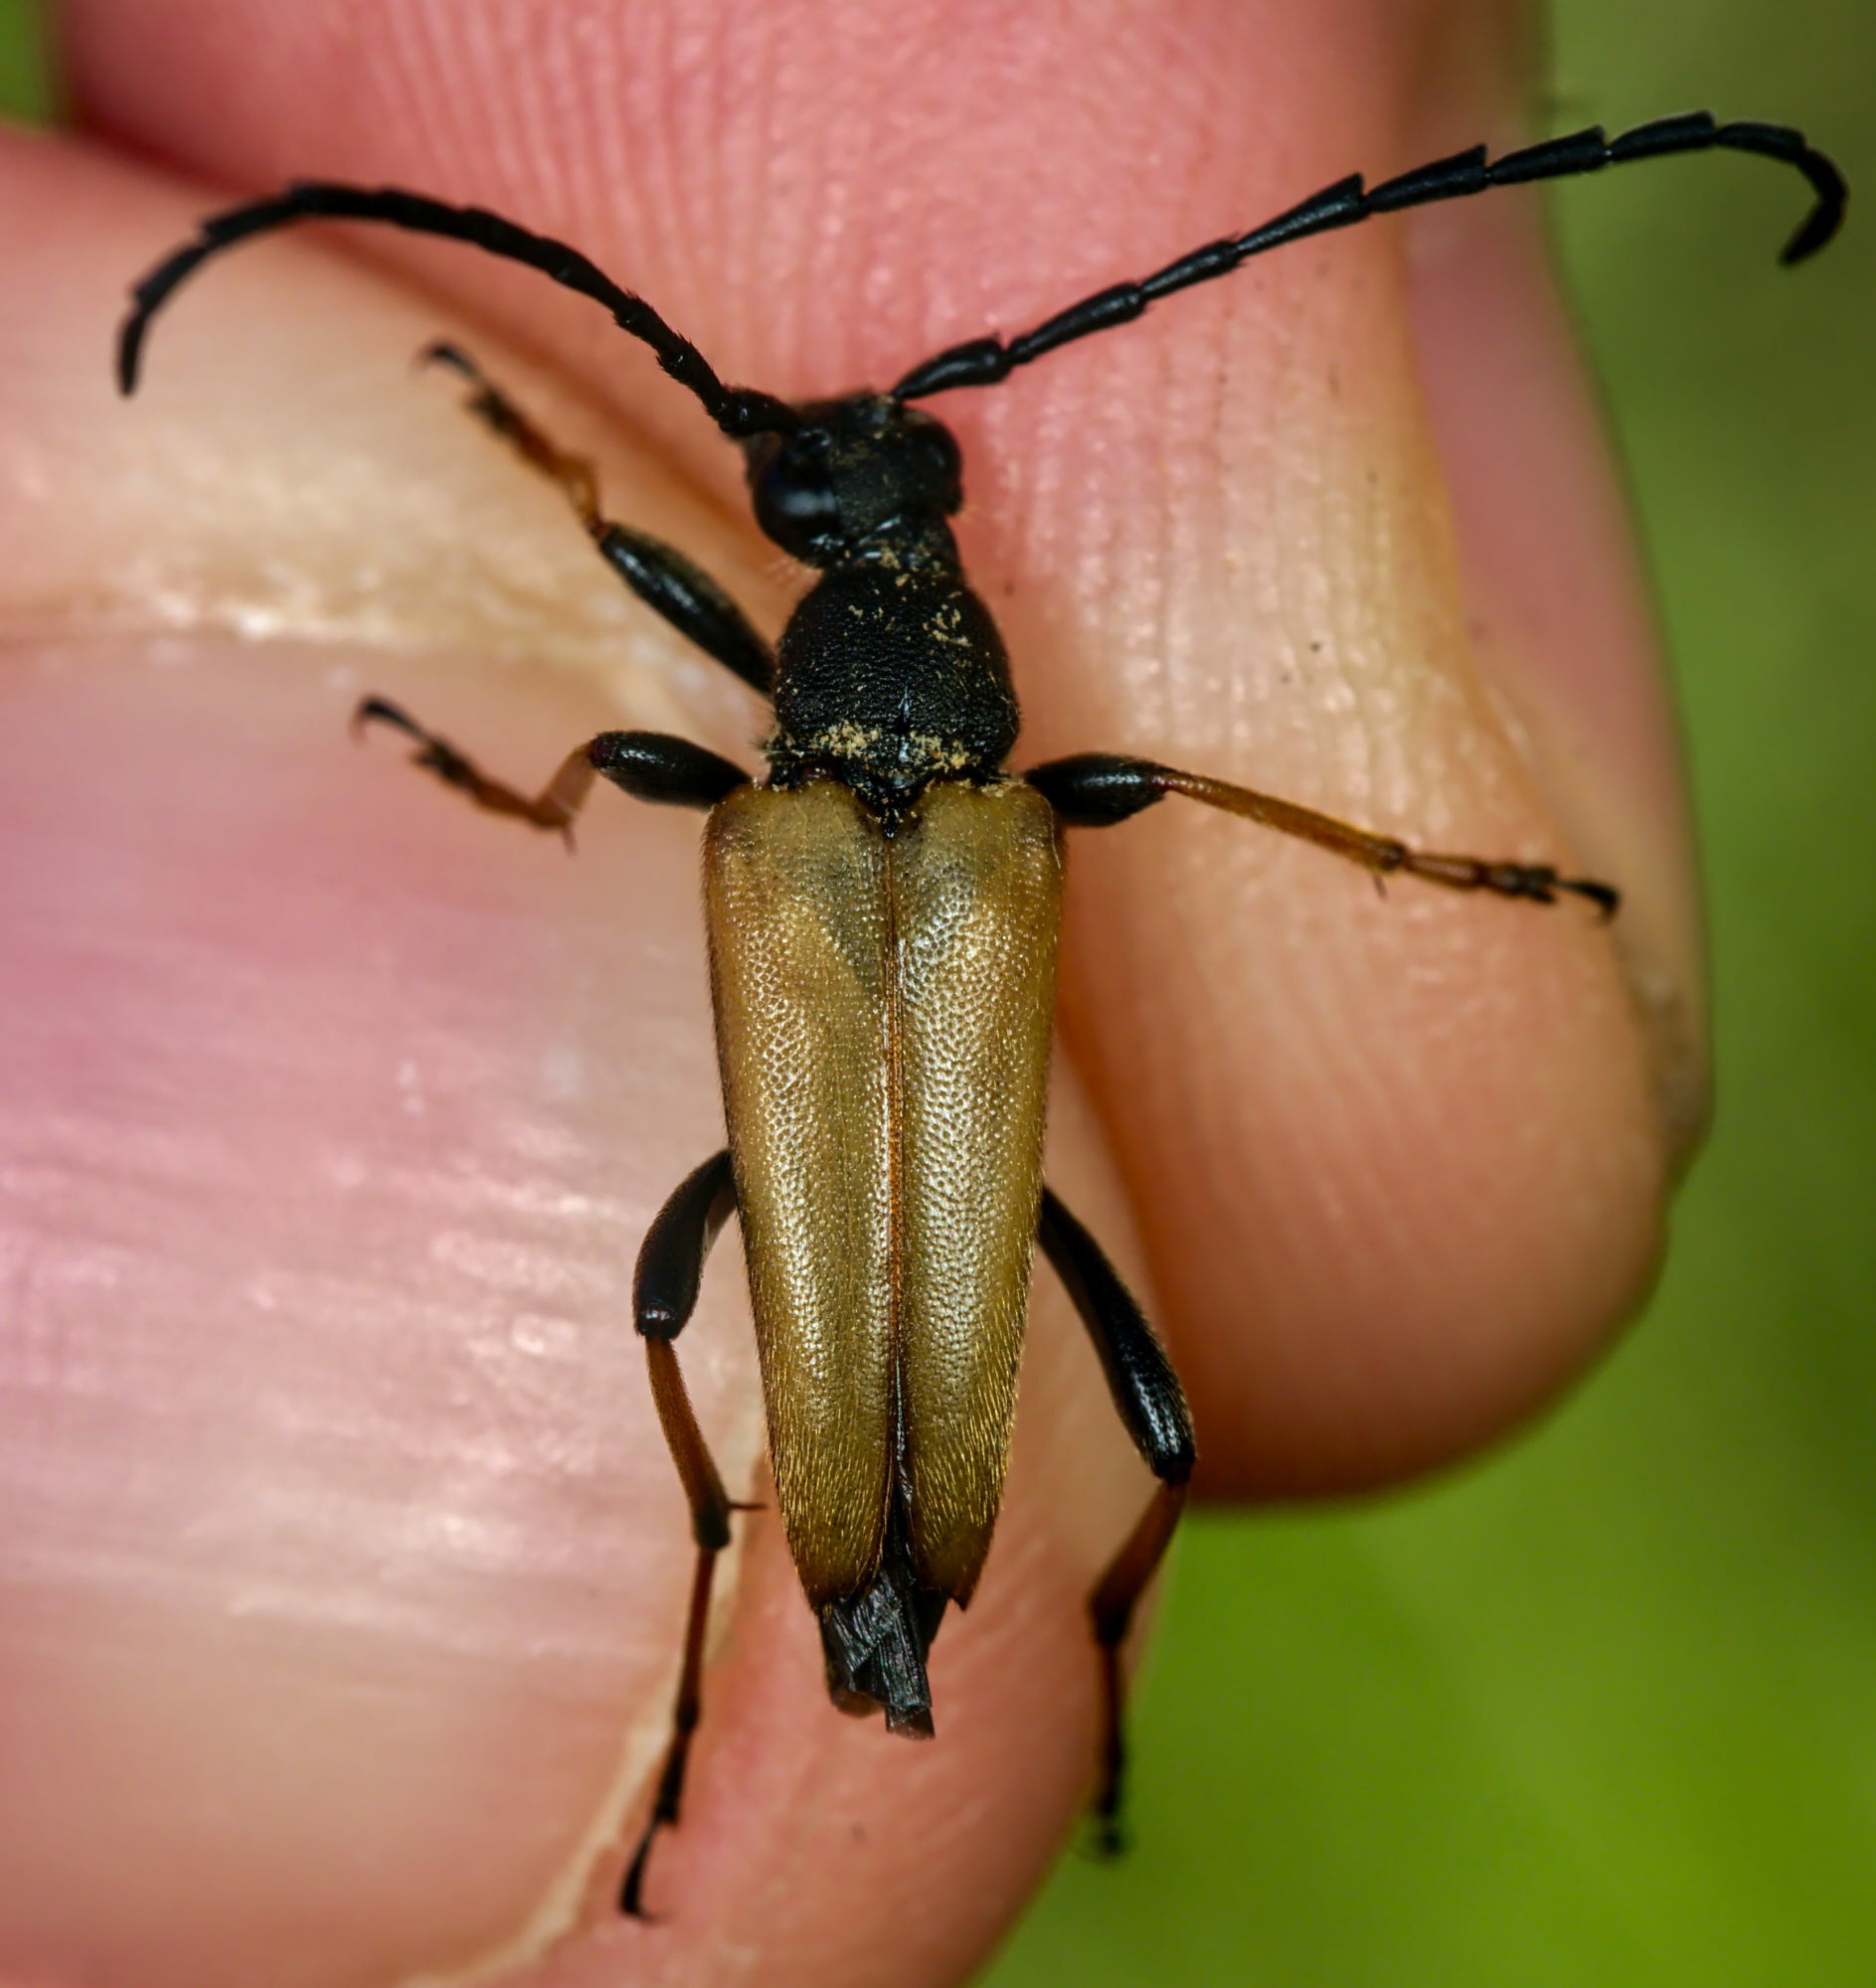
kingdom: Animalia
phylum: Arthropoda
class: Insecta
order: Coleoptera
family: Cerambycidae
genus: Stictoleptura
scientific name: Stictoleptura rubra
